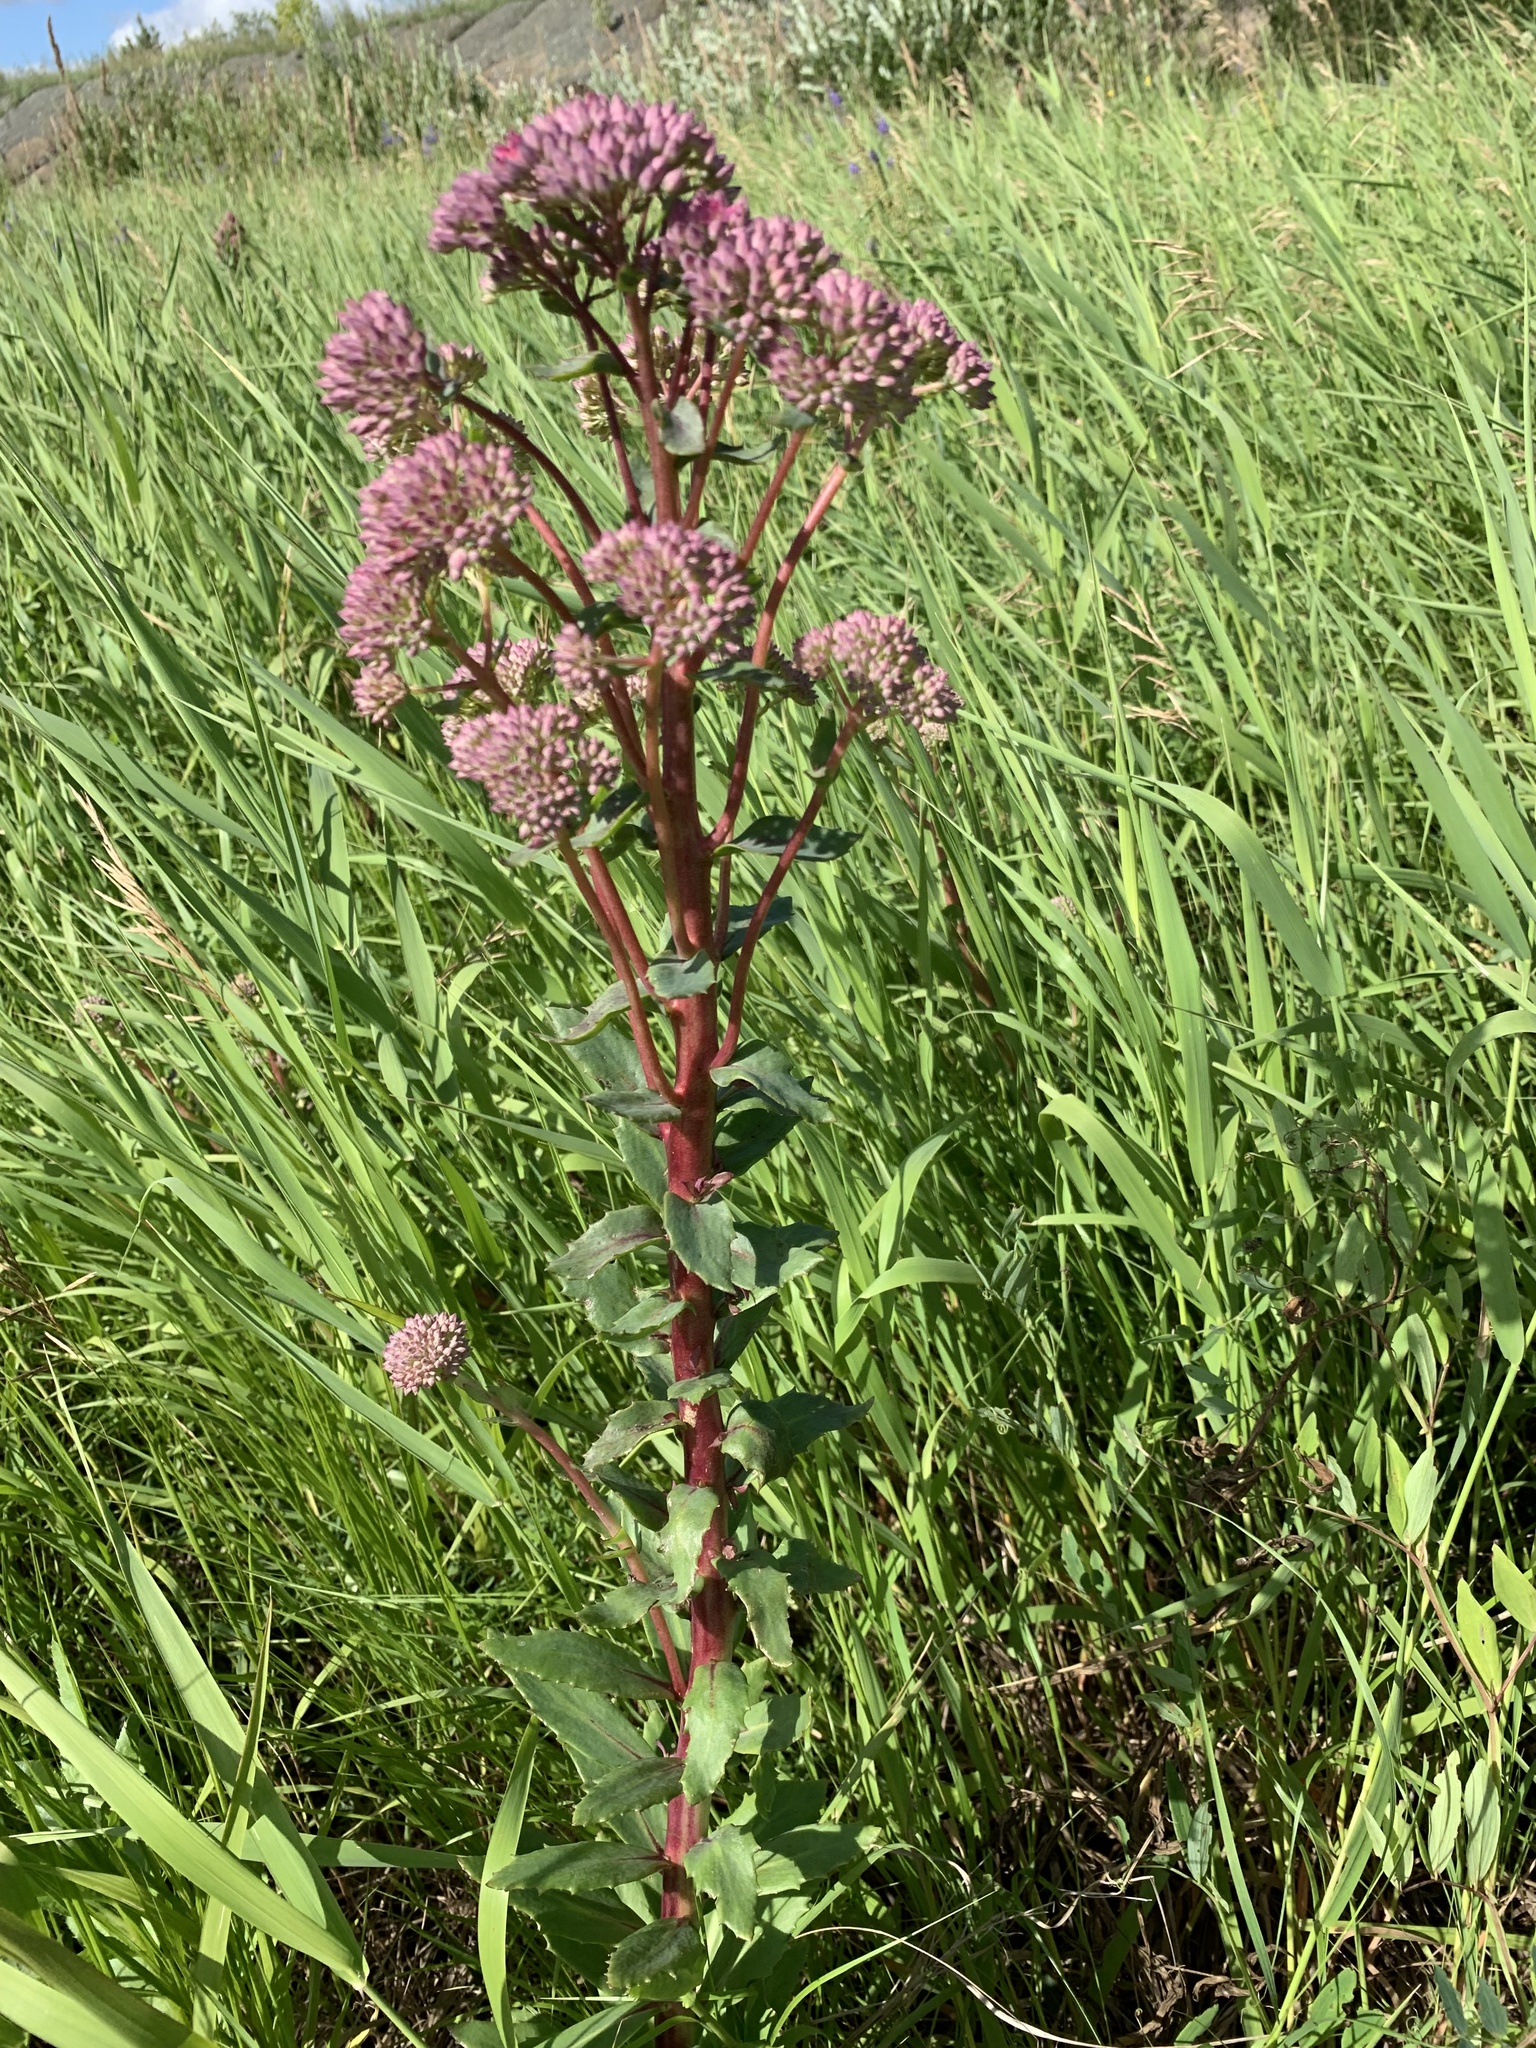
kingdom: Plantae
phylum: Tracheophyta
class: Magnoliopsida
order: Saxifragales
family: Crassulaceae
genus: Hylotelephium
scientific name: Hylotelephium telephium
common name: Live-forever
